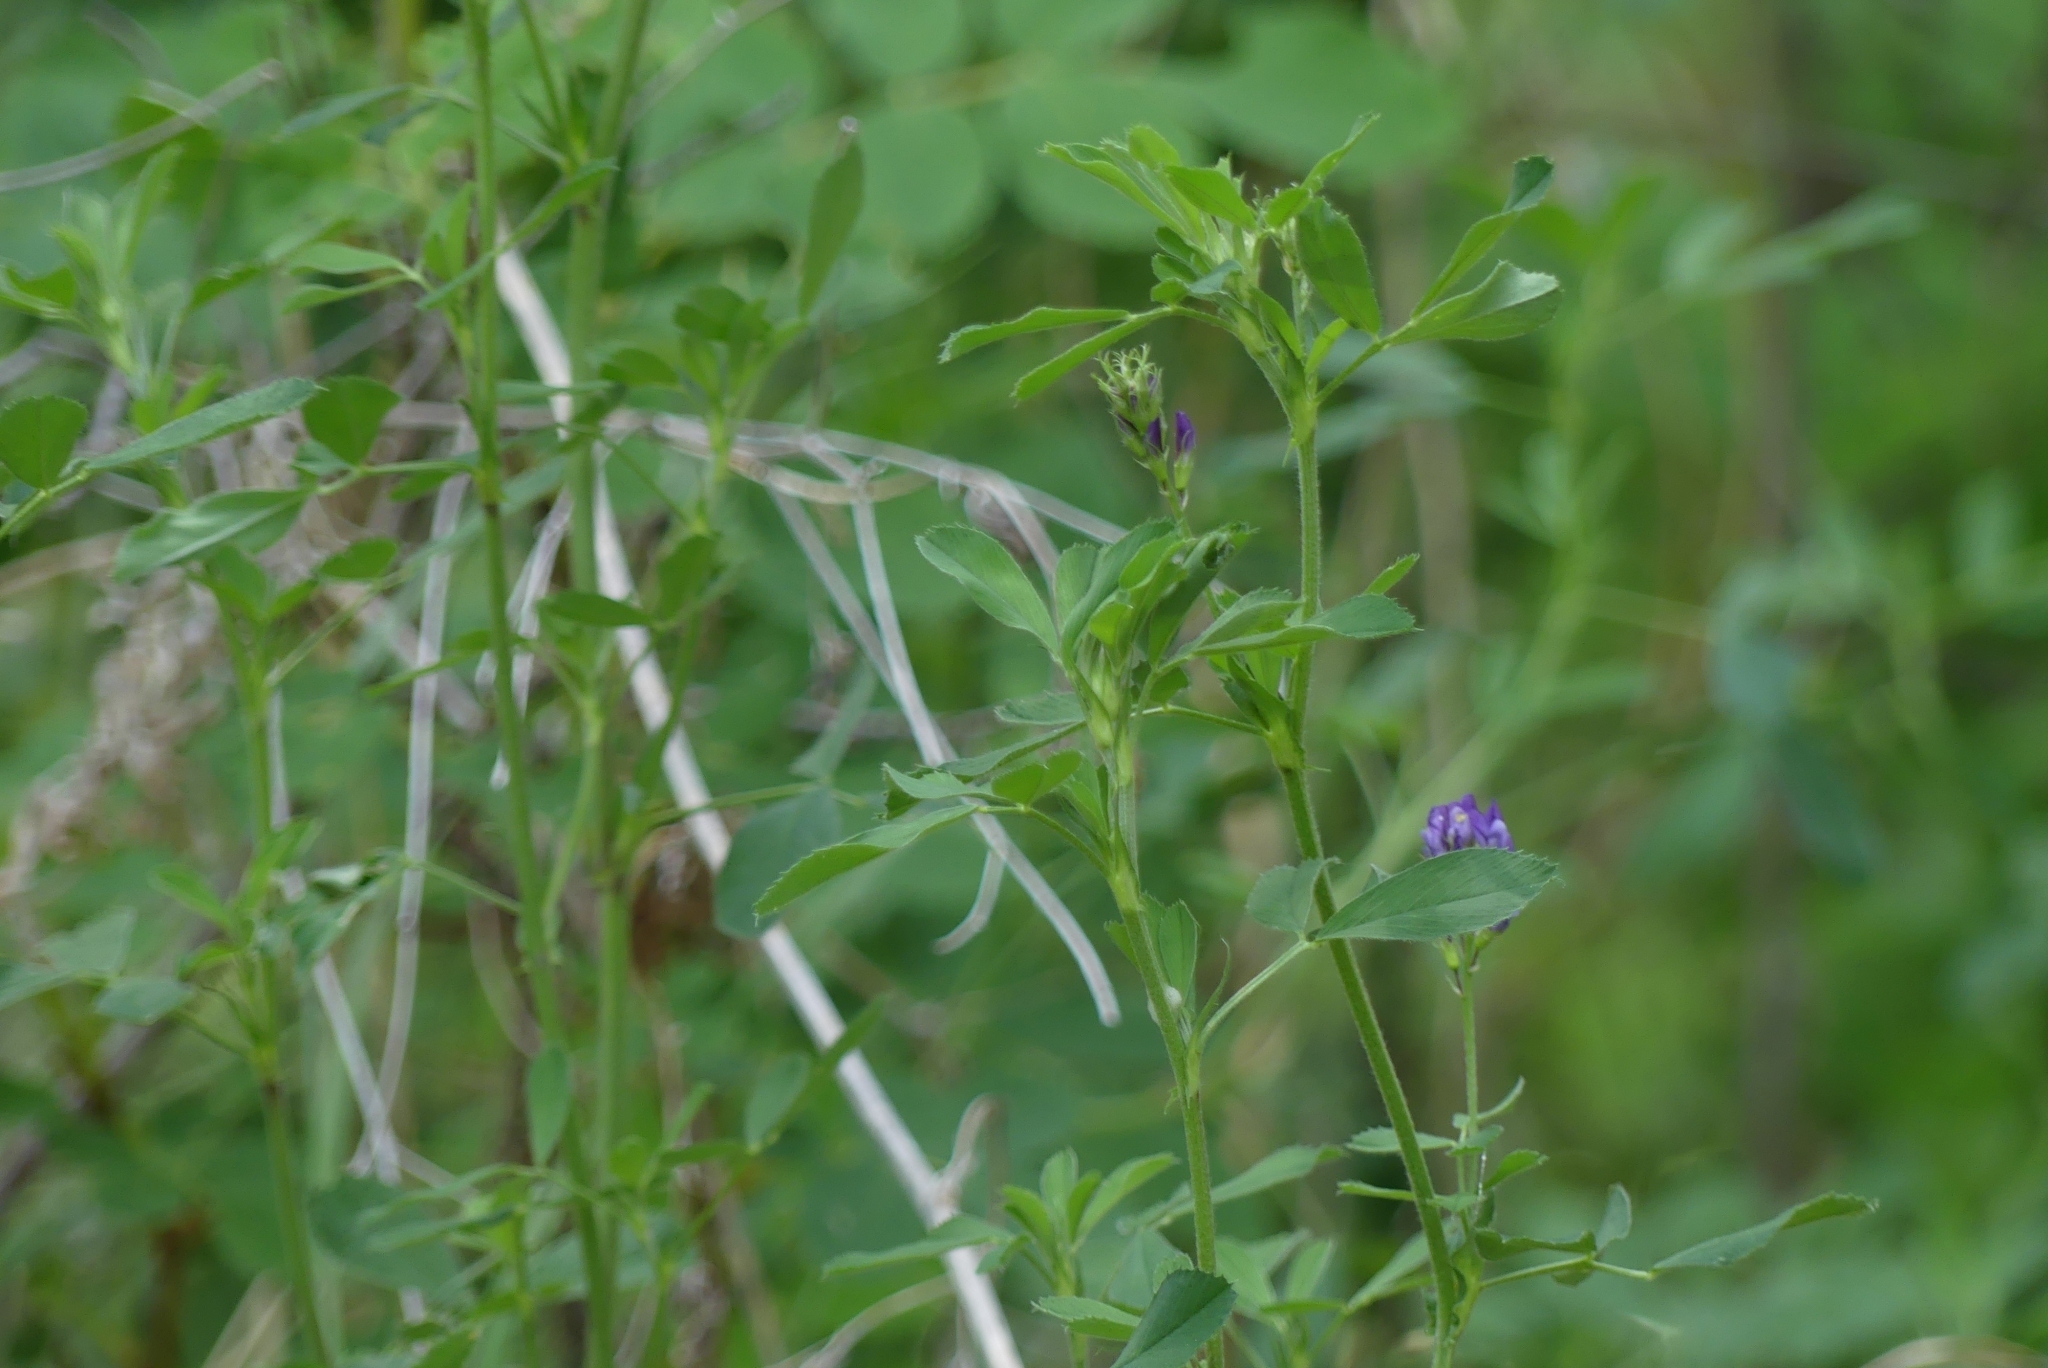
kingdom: Plantae
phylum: Tracheophyta
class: Magnoliopsida
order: Fabales
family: Fabaceae
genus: Medicago
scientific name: Medicago sativa
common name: Alfalfa
